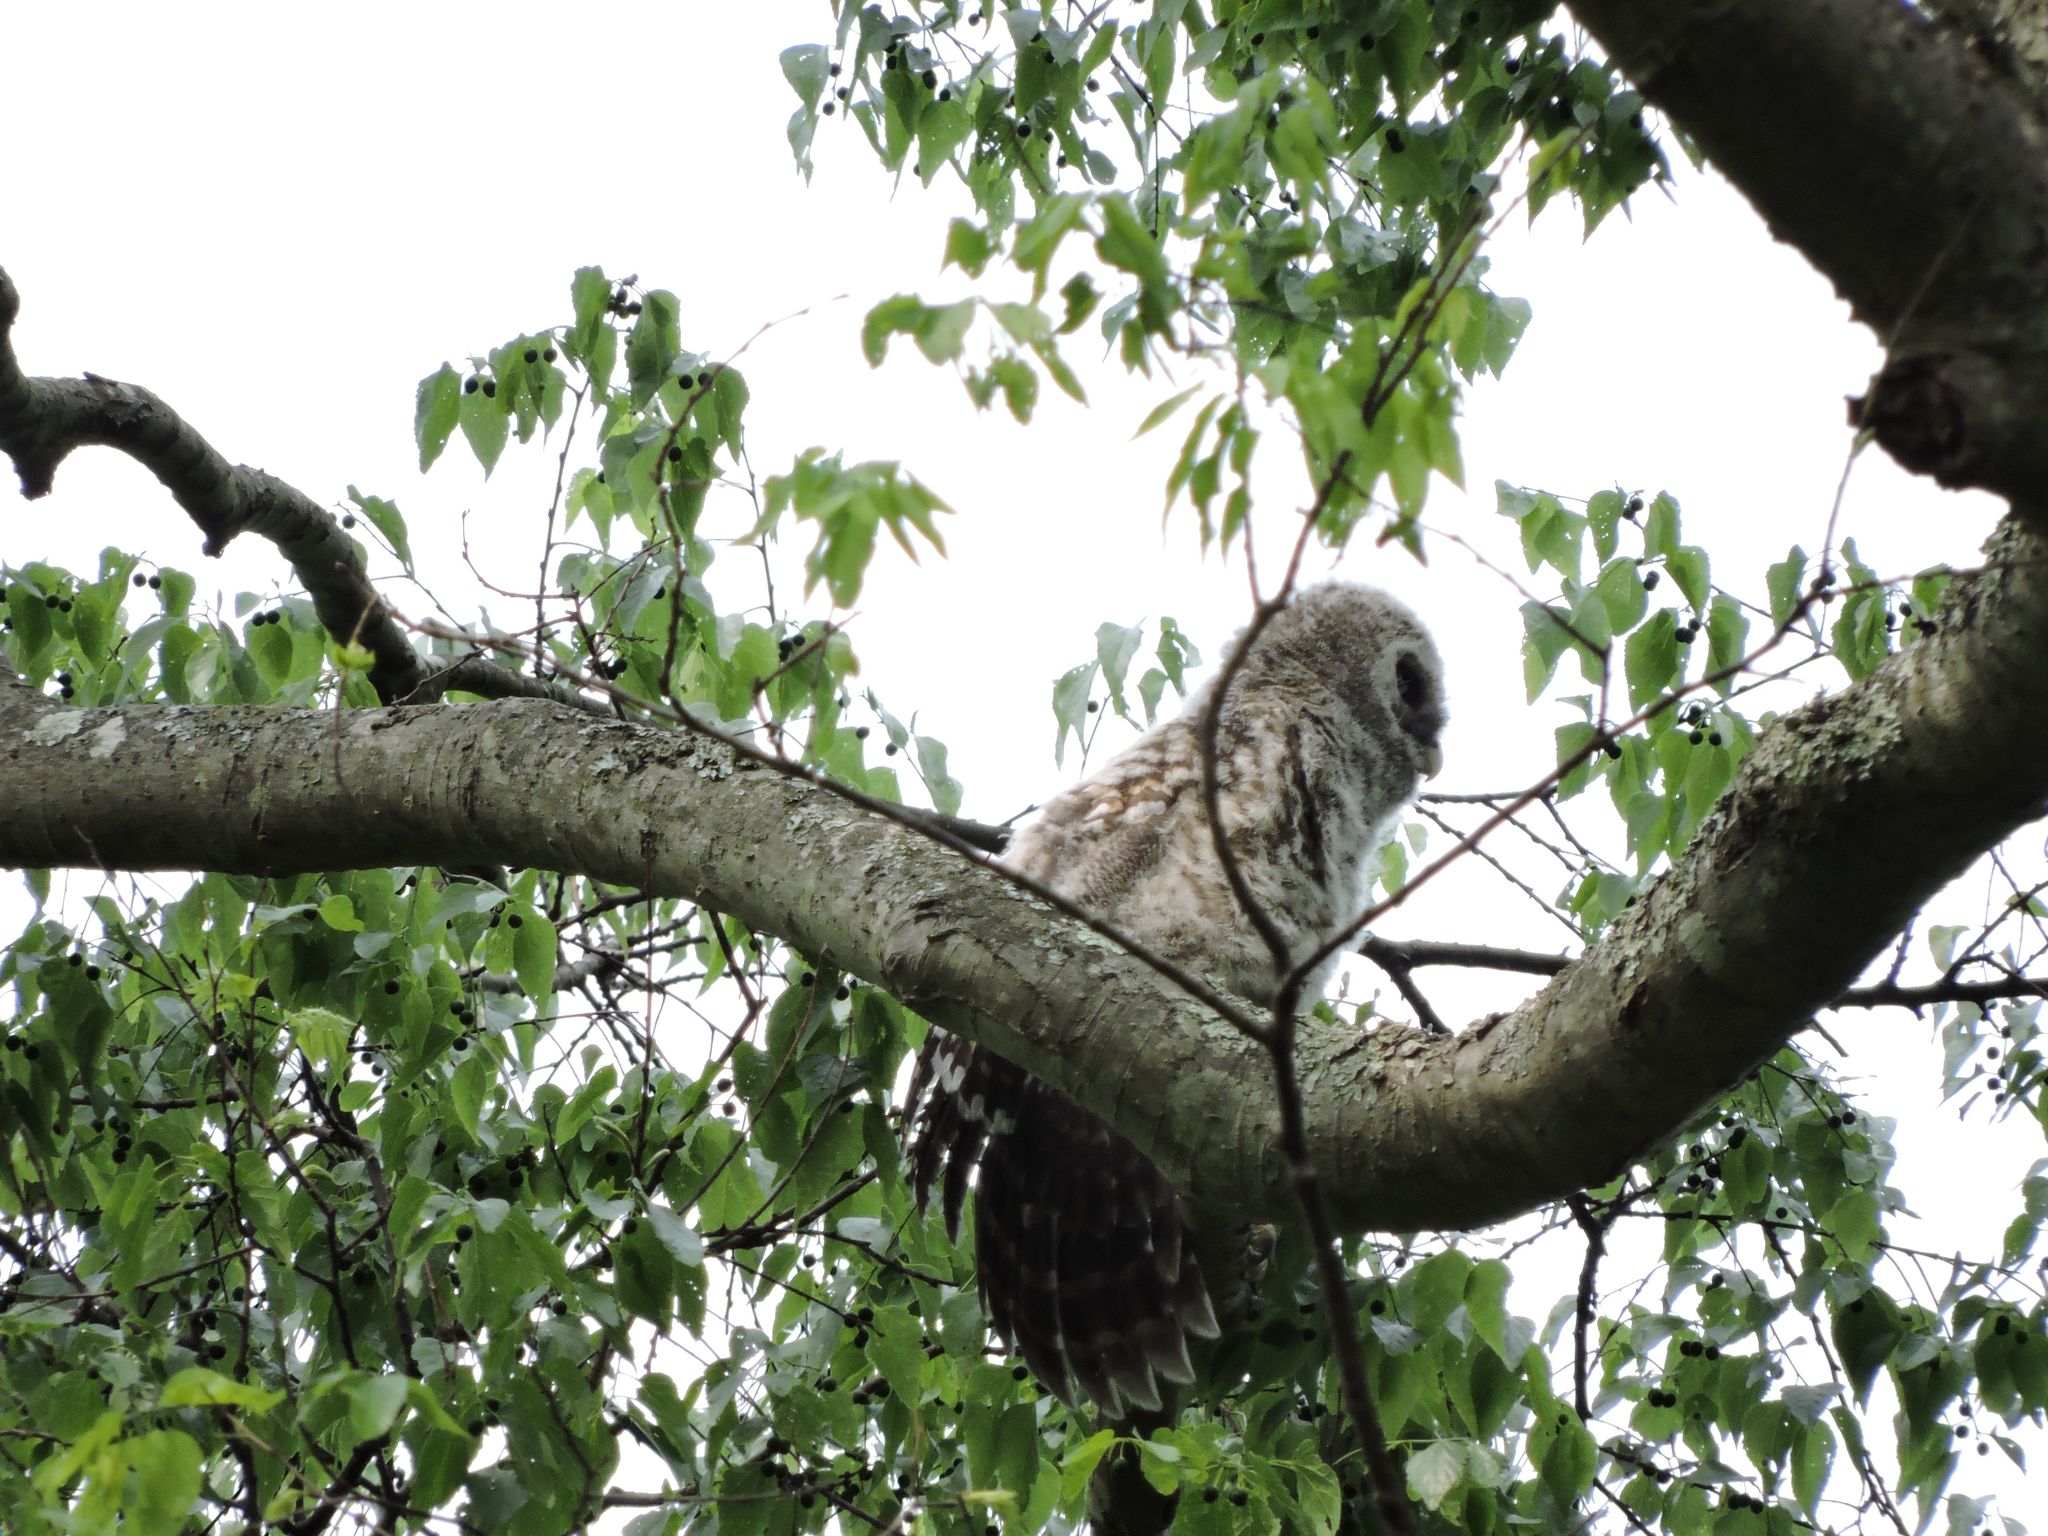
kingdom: Animalia
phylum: Chordata
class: Aves
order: Strigiformes
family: Strigidae
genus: Strix
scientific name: Strix varia
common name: Barred owl
